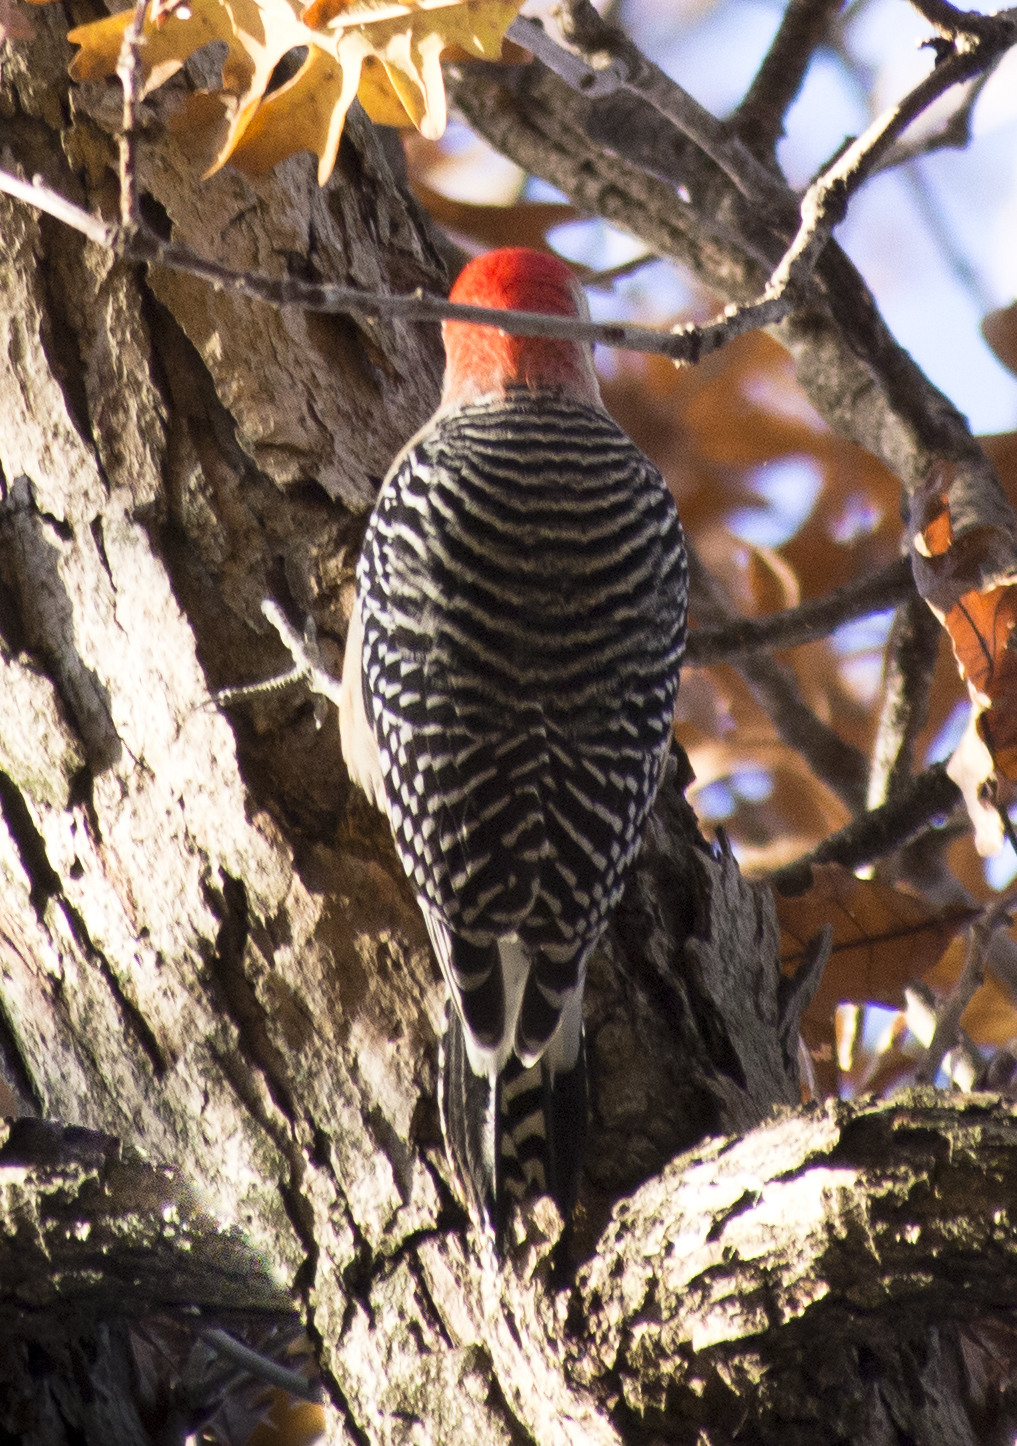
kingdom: Animalia
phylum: Chordata
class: Aves
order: Piciformes
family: Picidae
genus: Melanerpes
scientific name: Melanerpes carolinus
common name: Red-bellied woodpecker
